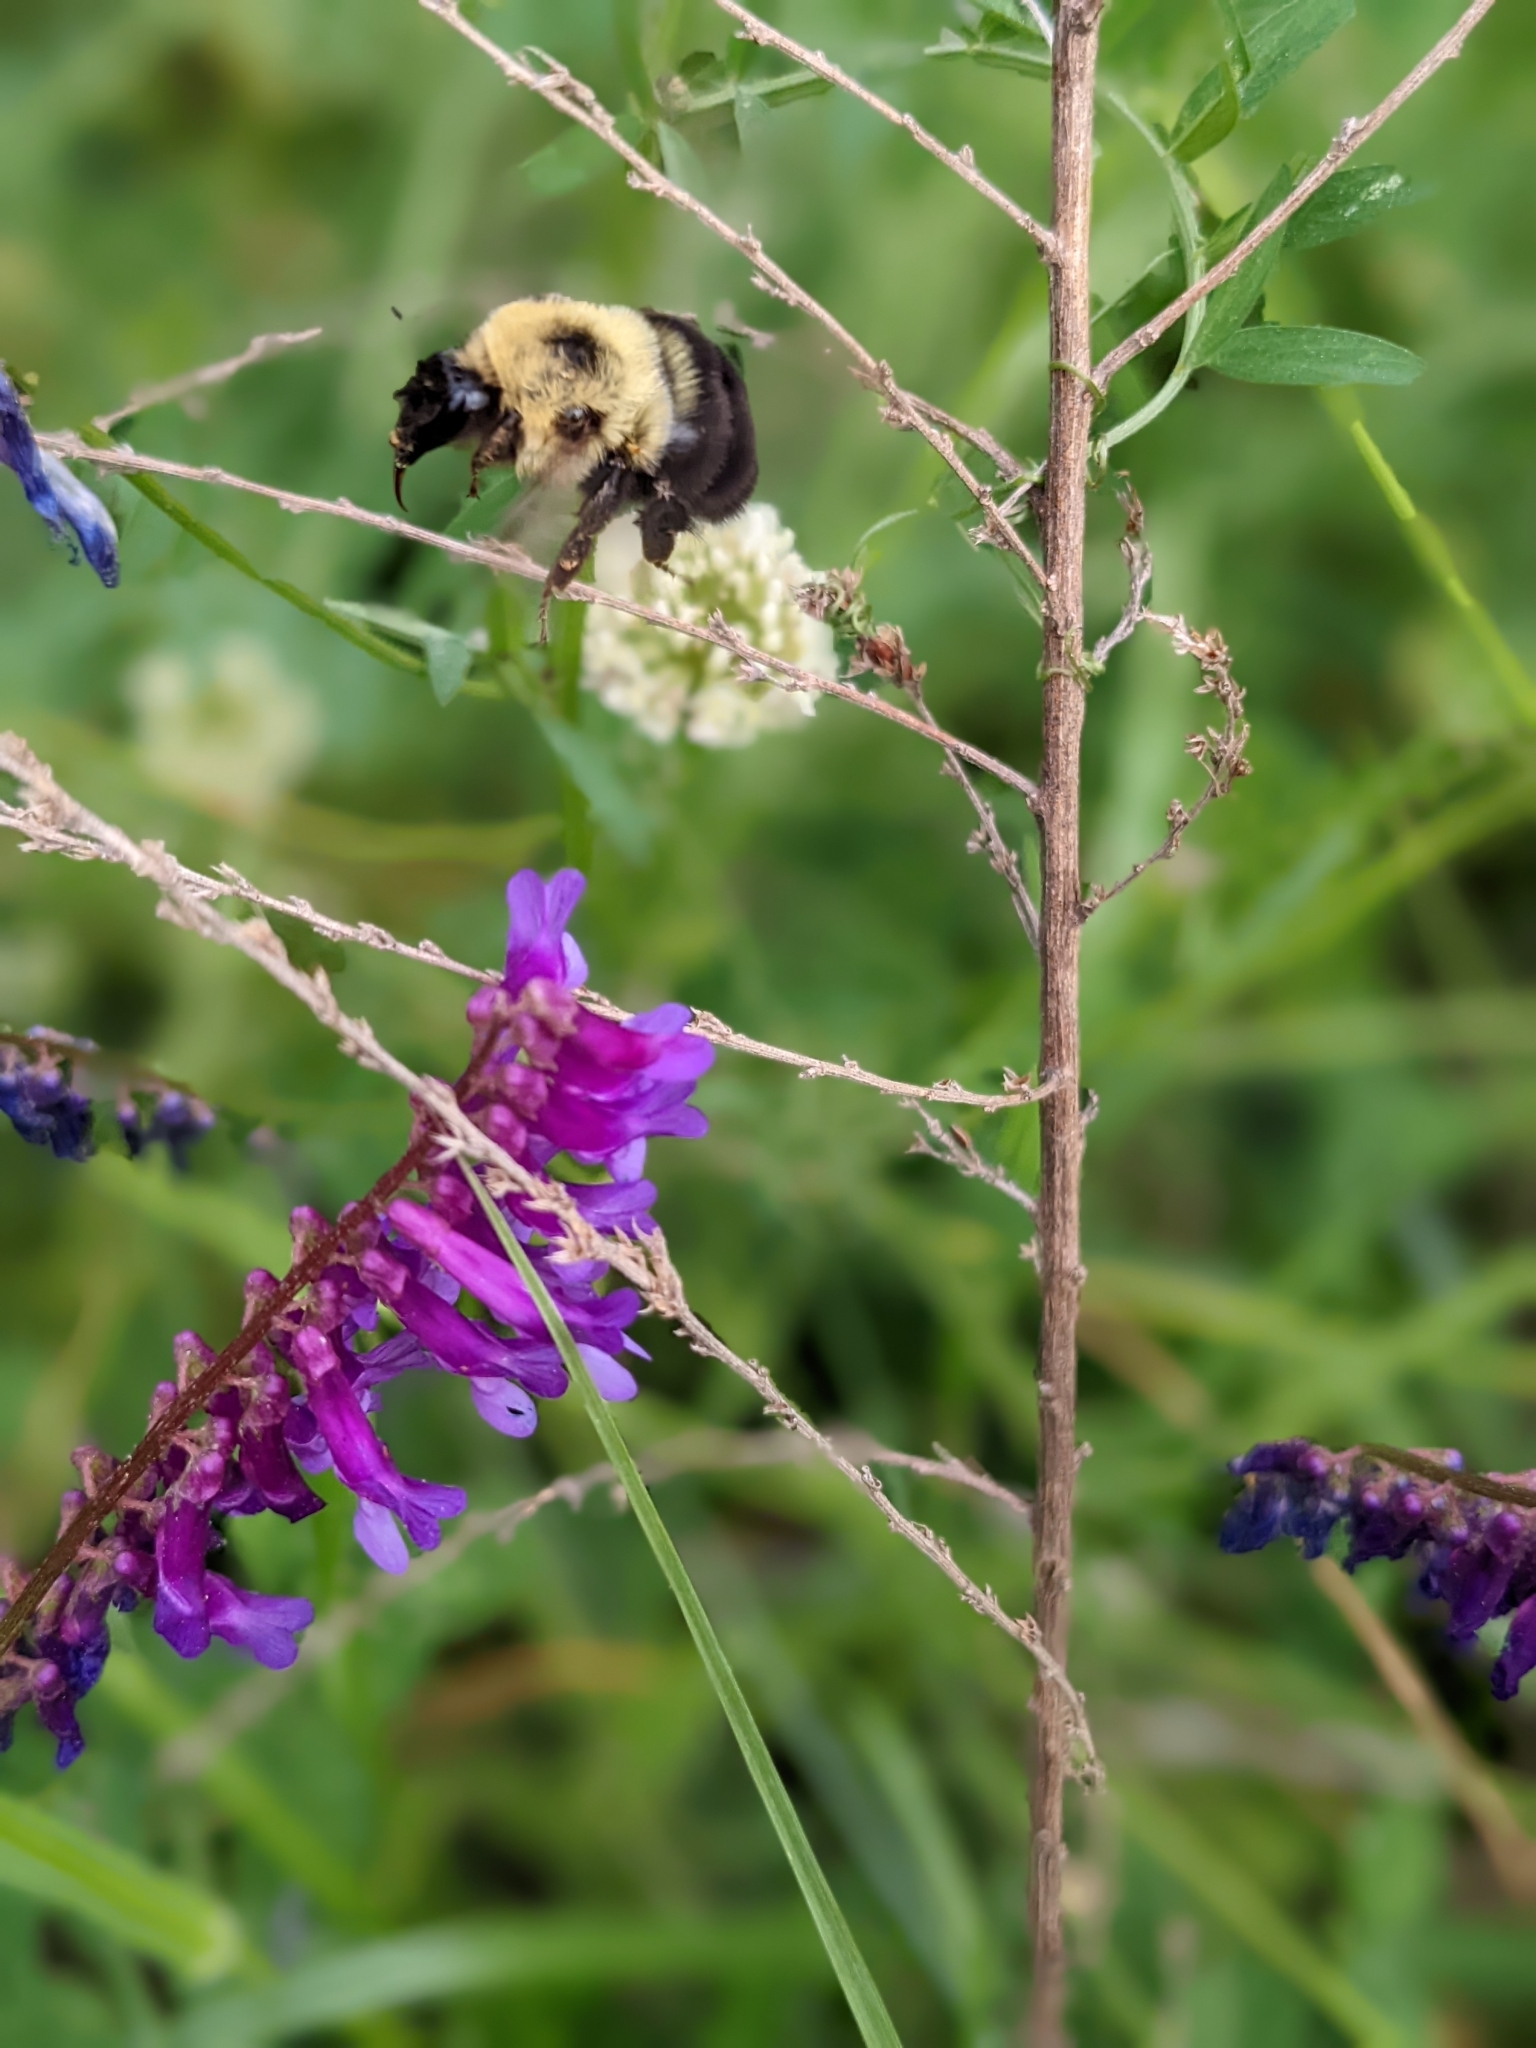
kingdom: Animalia
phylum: Arthropoda
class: Insecta
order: Hymenoptera
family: Apidae
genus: Bombus
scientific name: Bombus bimaculatus
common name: Two-spotted bumble bee
